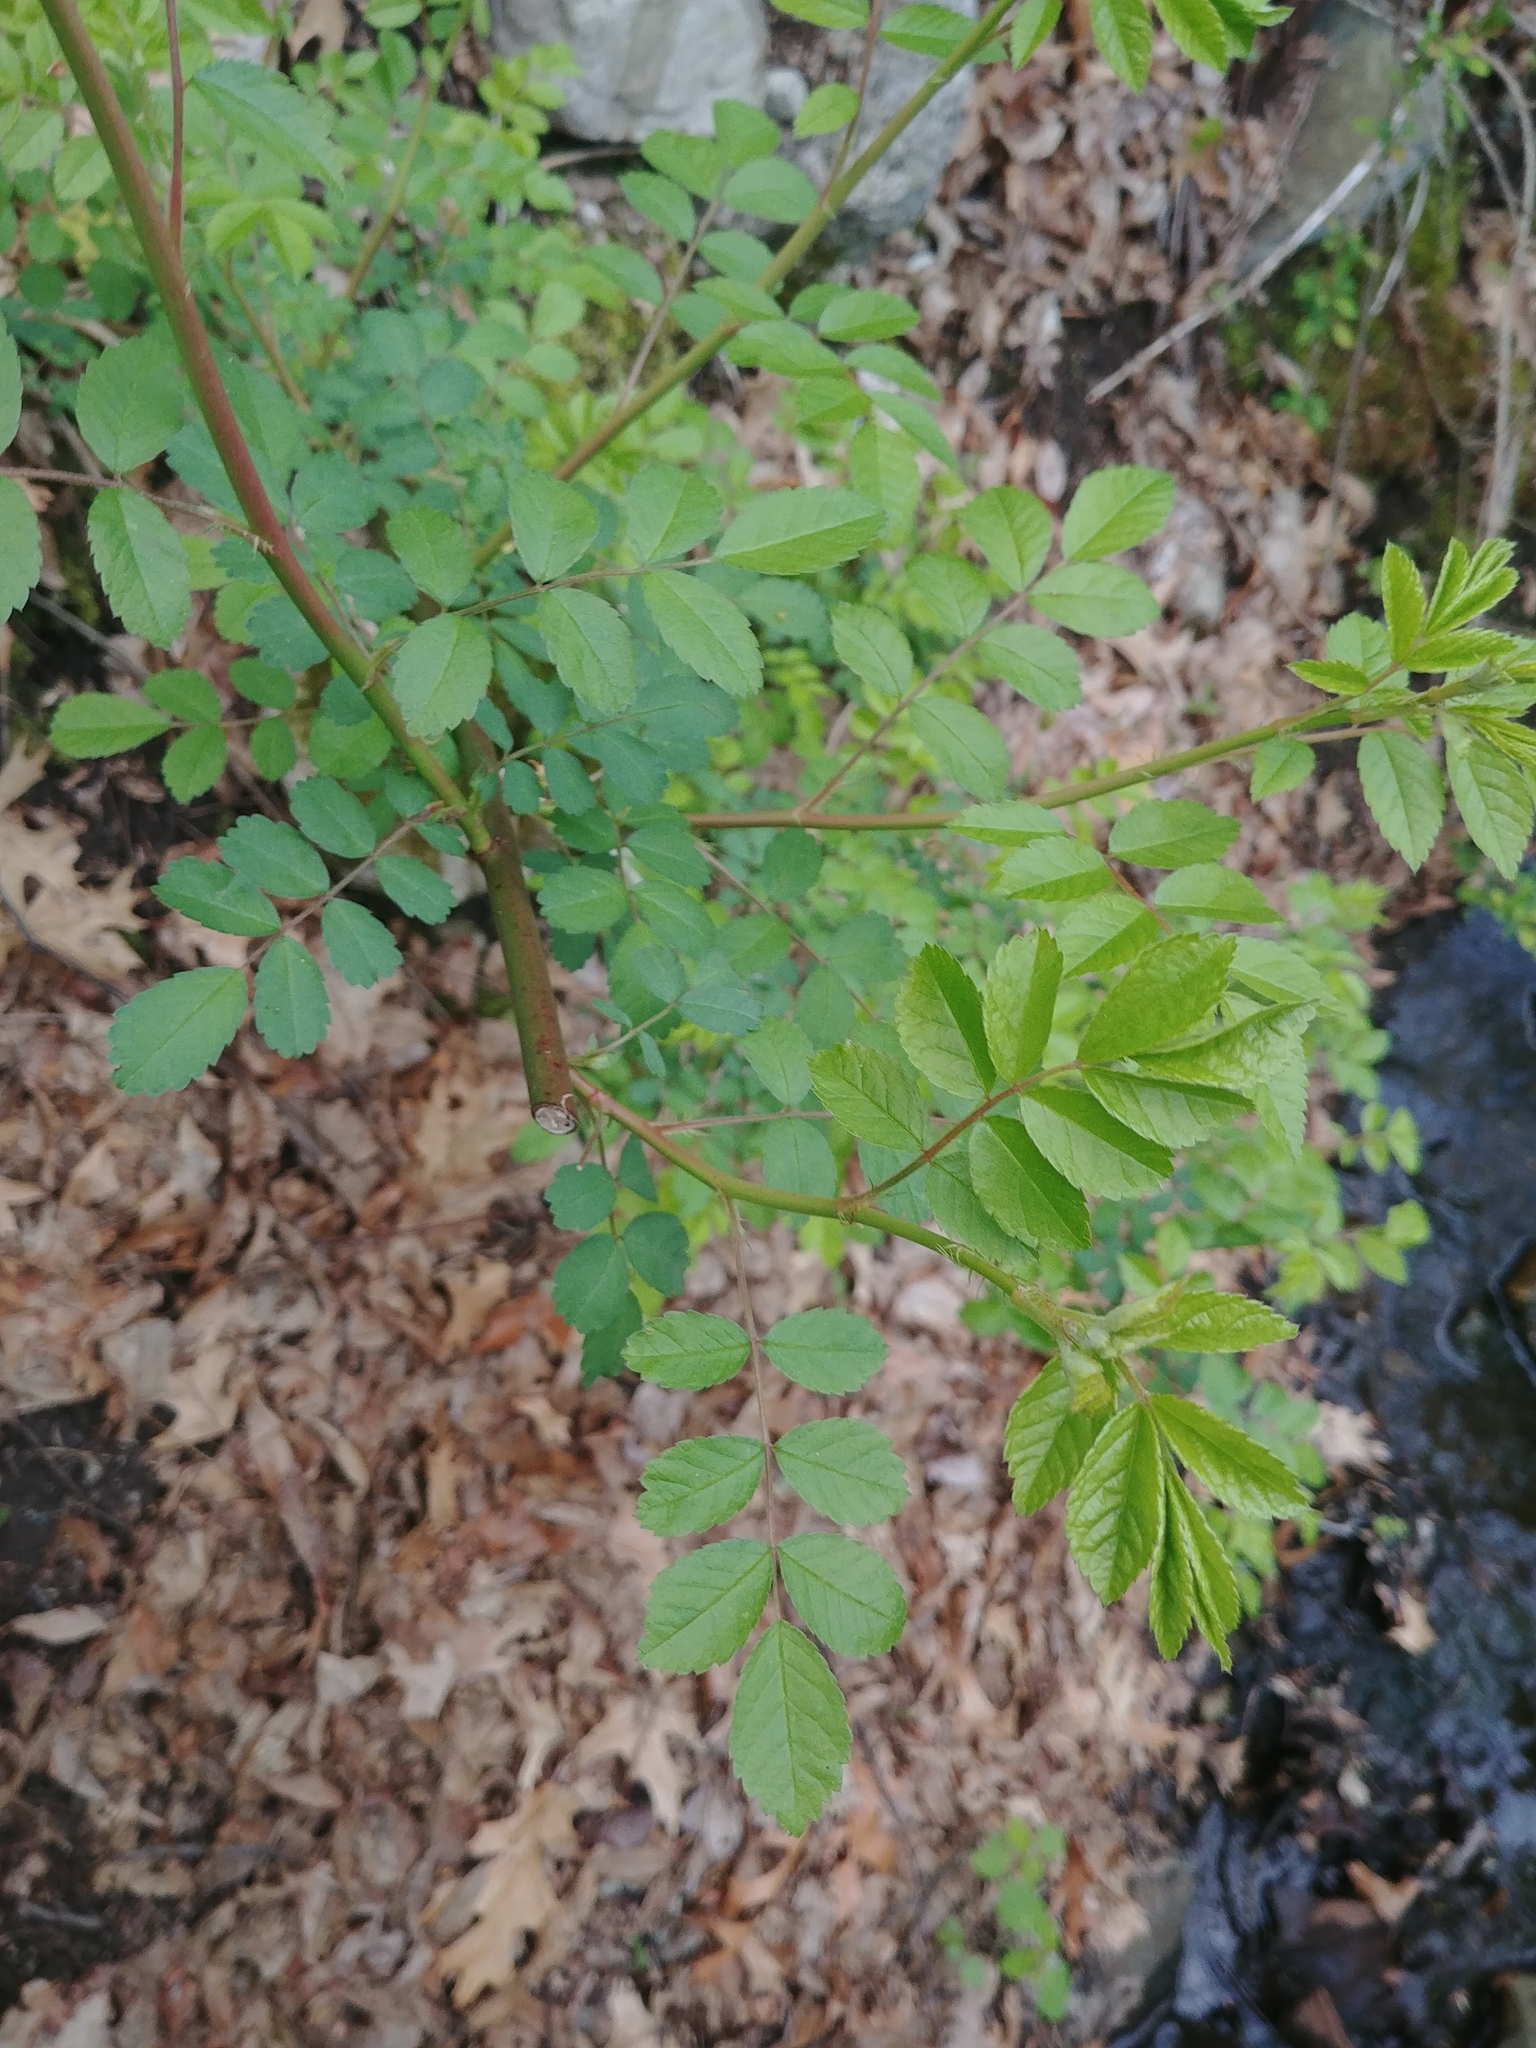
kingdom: Plantae
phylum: Tracheophyta
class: Magnoliopsida
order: Rosales
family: Rosaceae
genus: Rosa
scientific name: Rosa multiflora
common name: Multiflora rose
